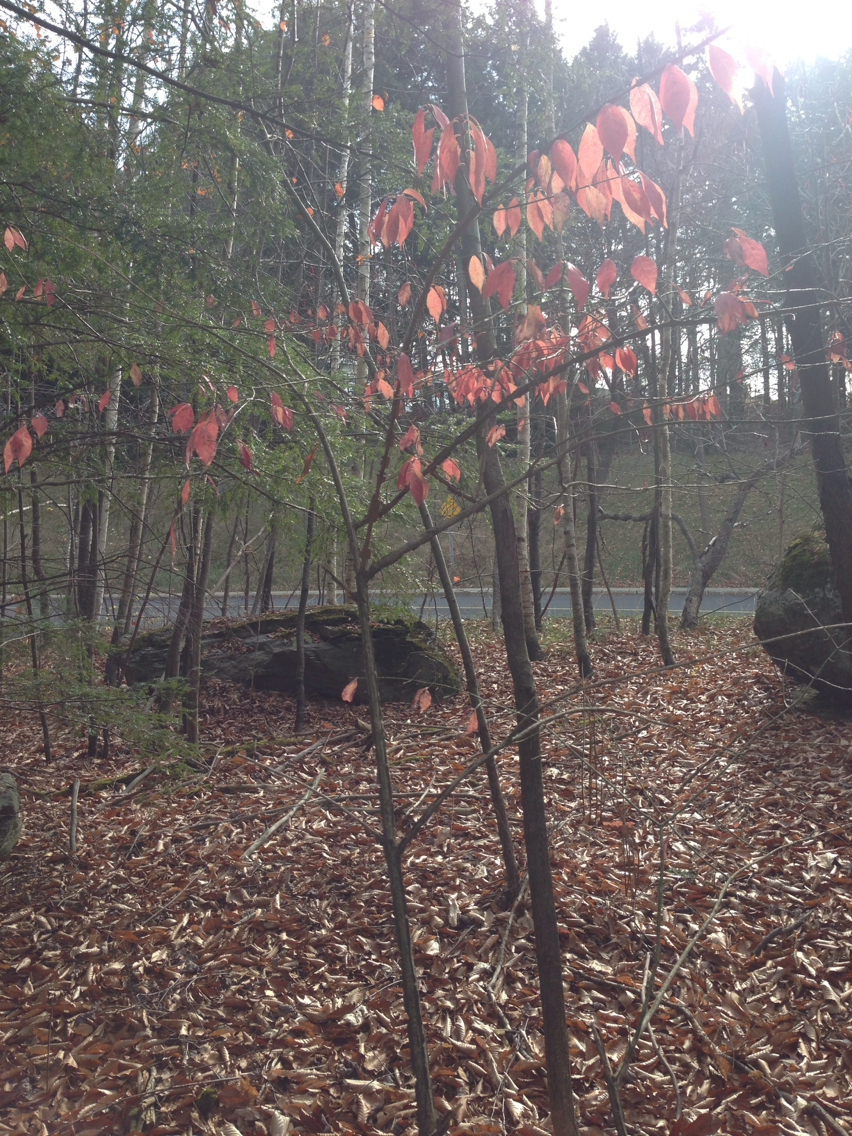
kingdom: Plantae
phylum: Tracheophyta
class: Magnoliopsida
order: Celastrales
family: Celastraceae
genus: Euonymus
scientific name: Euonymus alatus
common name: Winged euonymus
